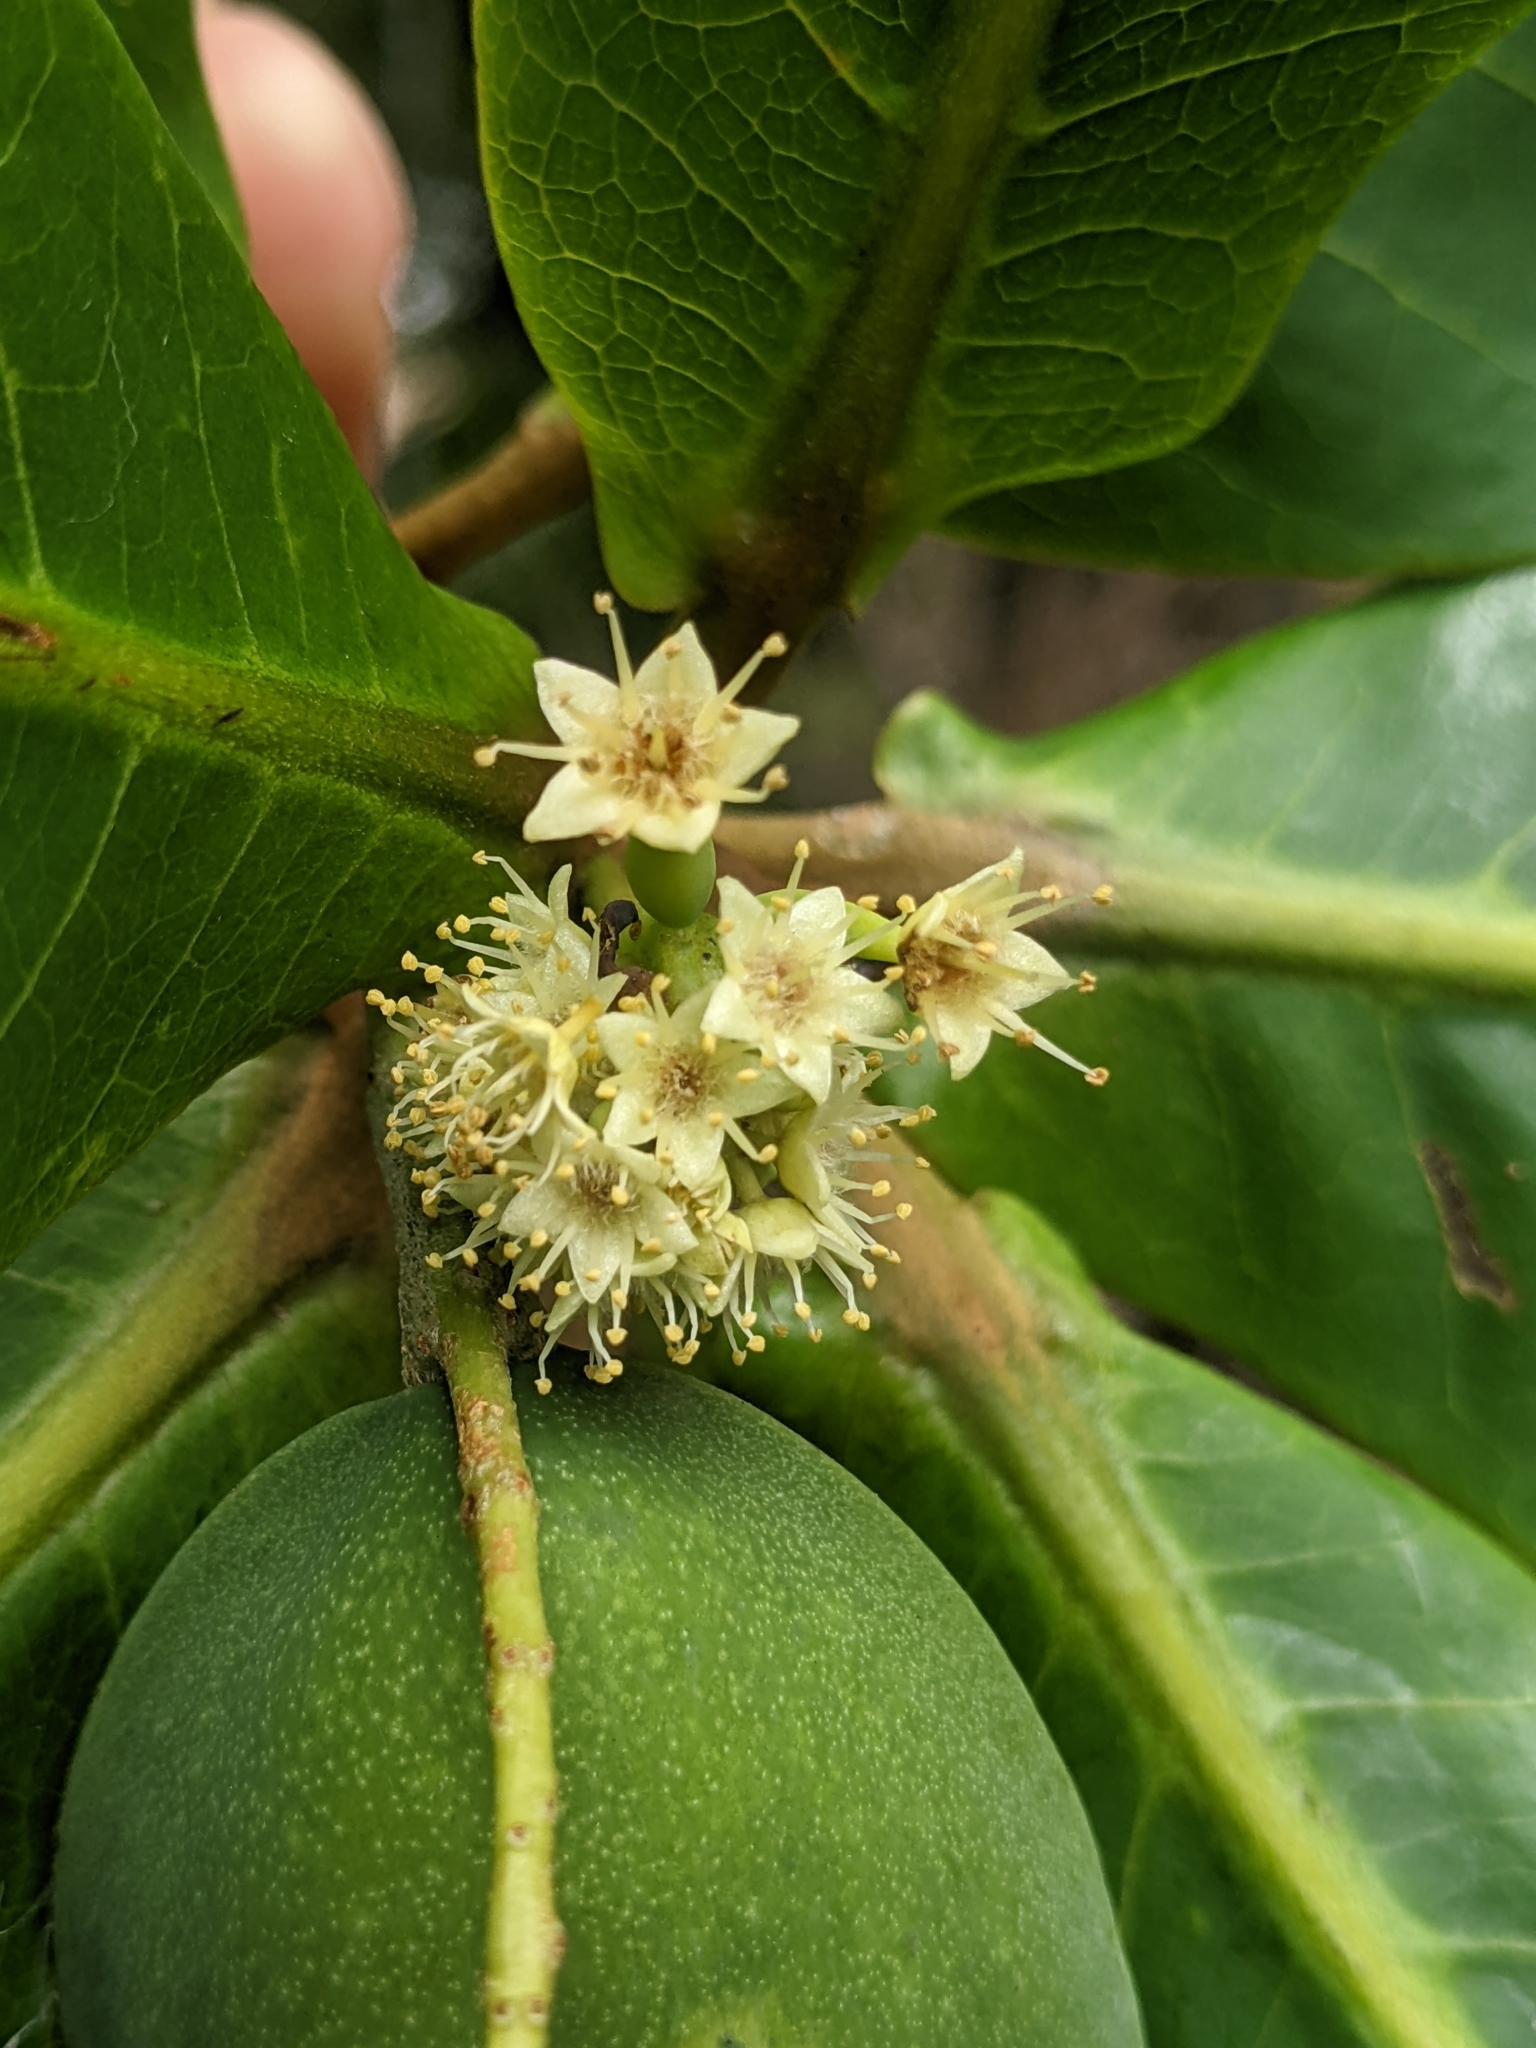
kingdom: Plantae
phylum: Tracheophyta
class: Magnoliopsida
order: Myrtales
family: Combretaceae
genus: Terminalia
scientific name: Terminalia catappa
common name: Tropical almond
